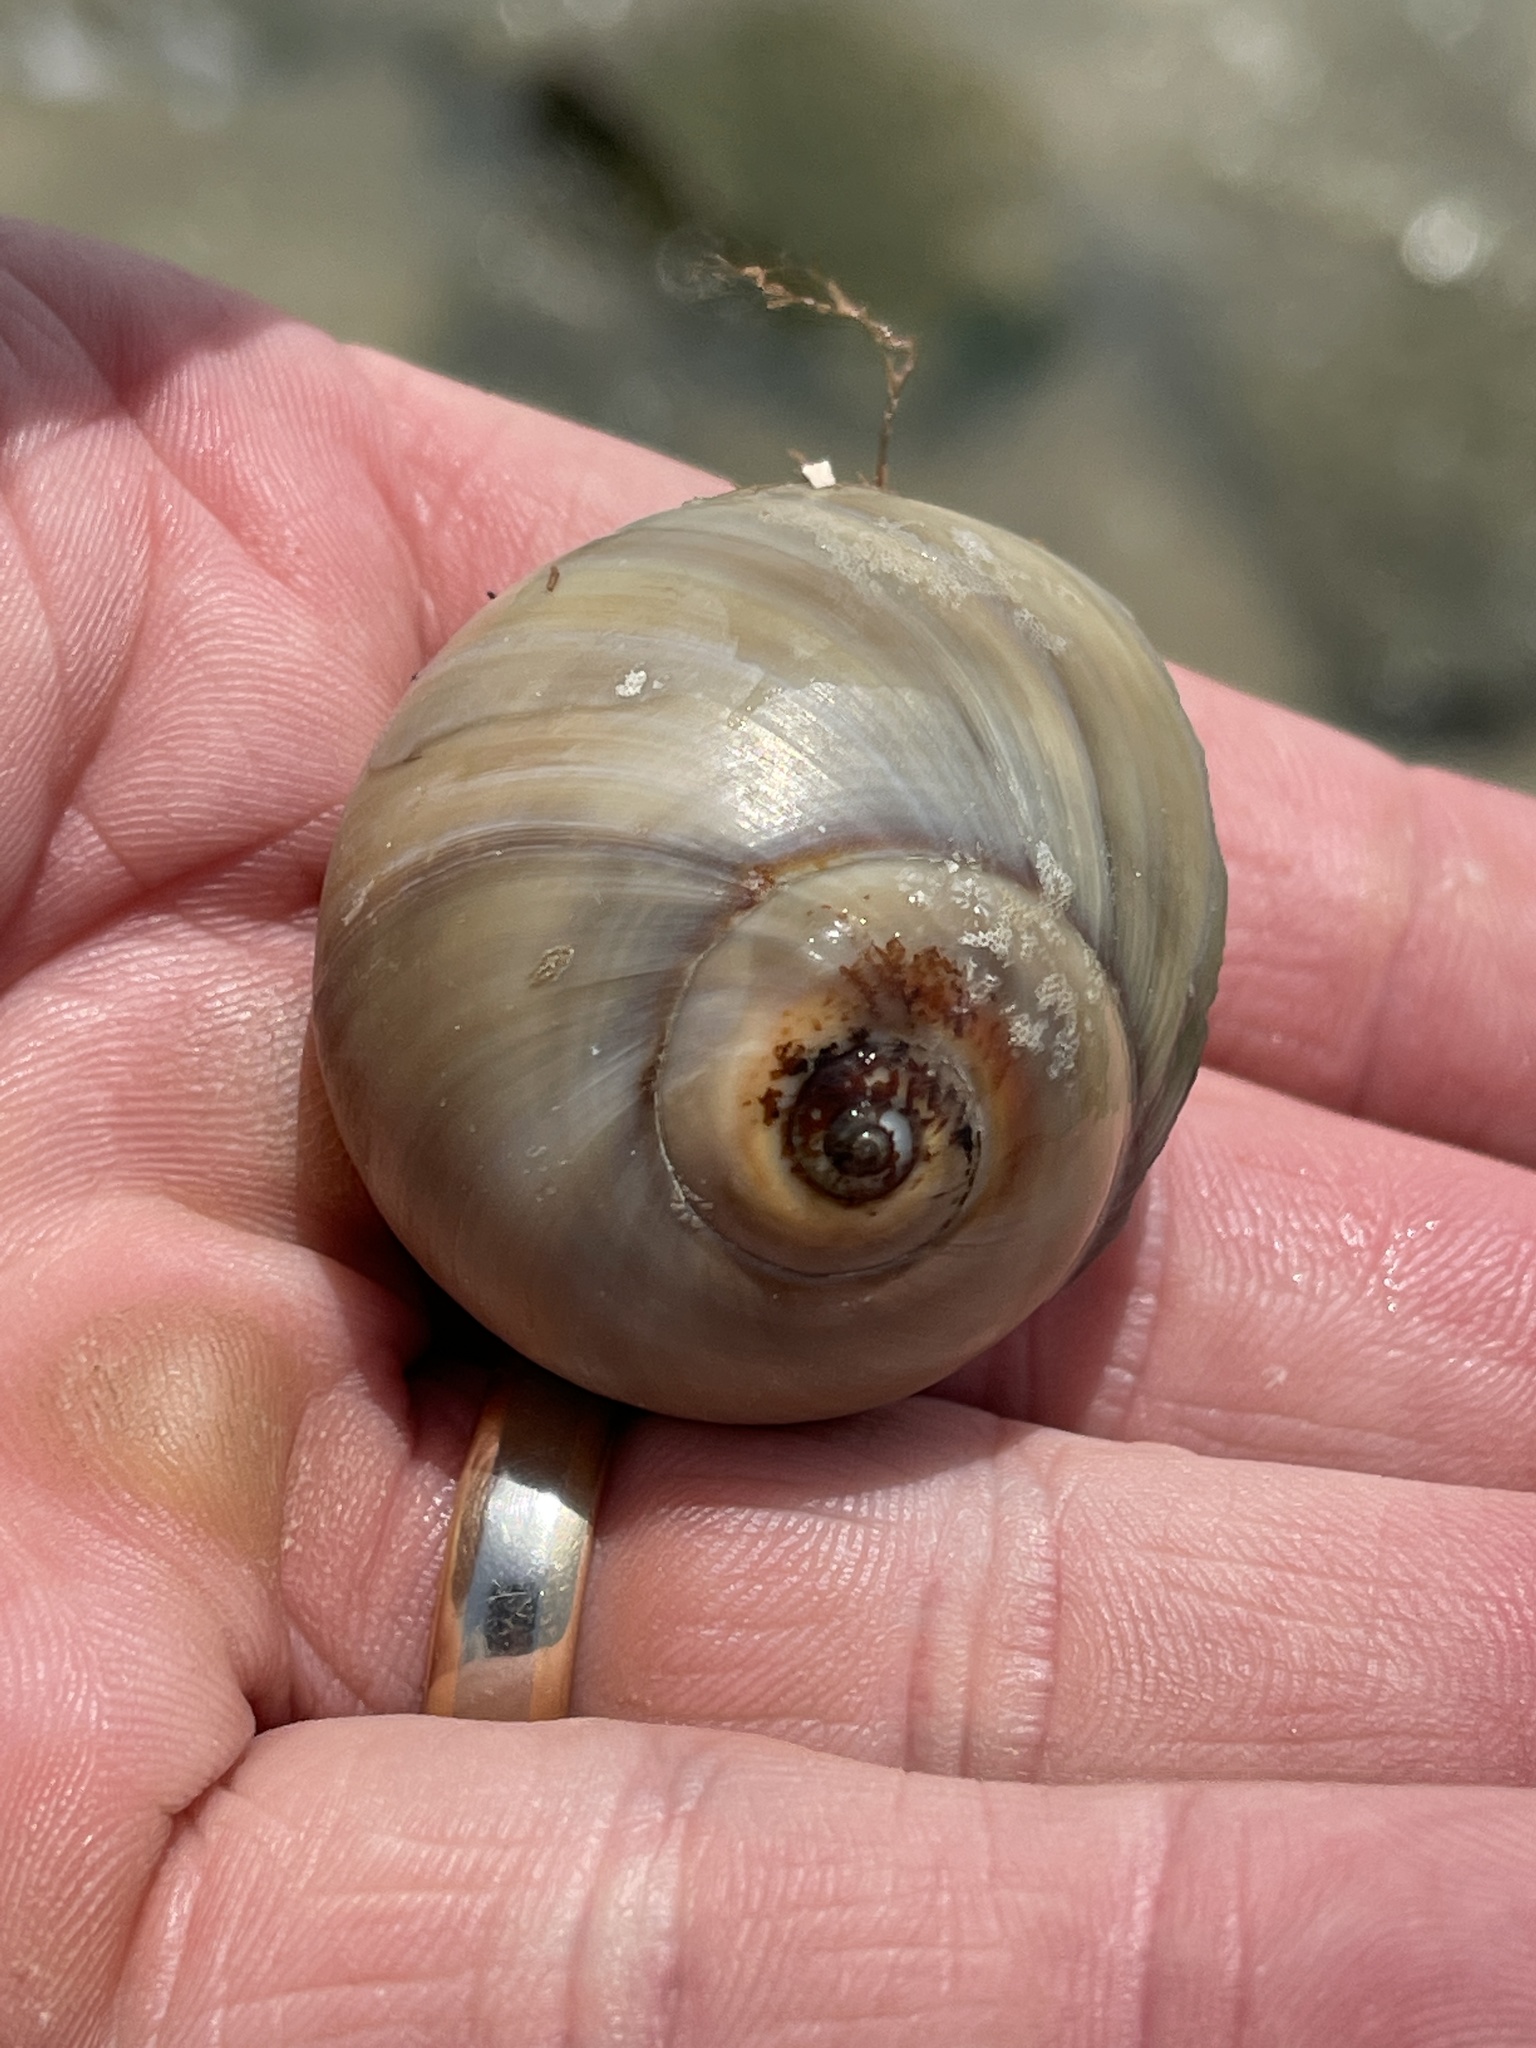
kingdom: Animalia
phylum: Mollusca
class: Gastropoda
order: Littorinimorpha
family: Naticidae
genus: Neverita
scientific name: Neverita duplicata
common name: Lobed moonsnail
